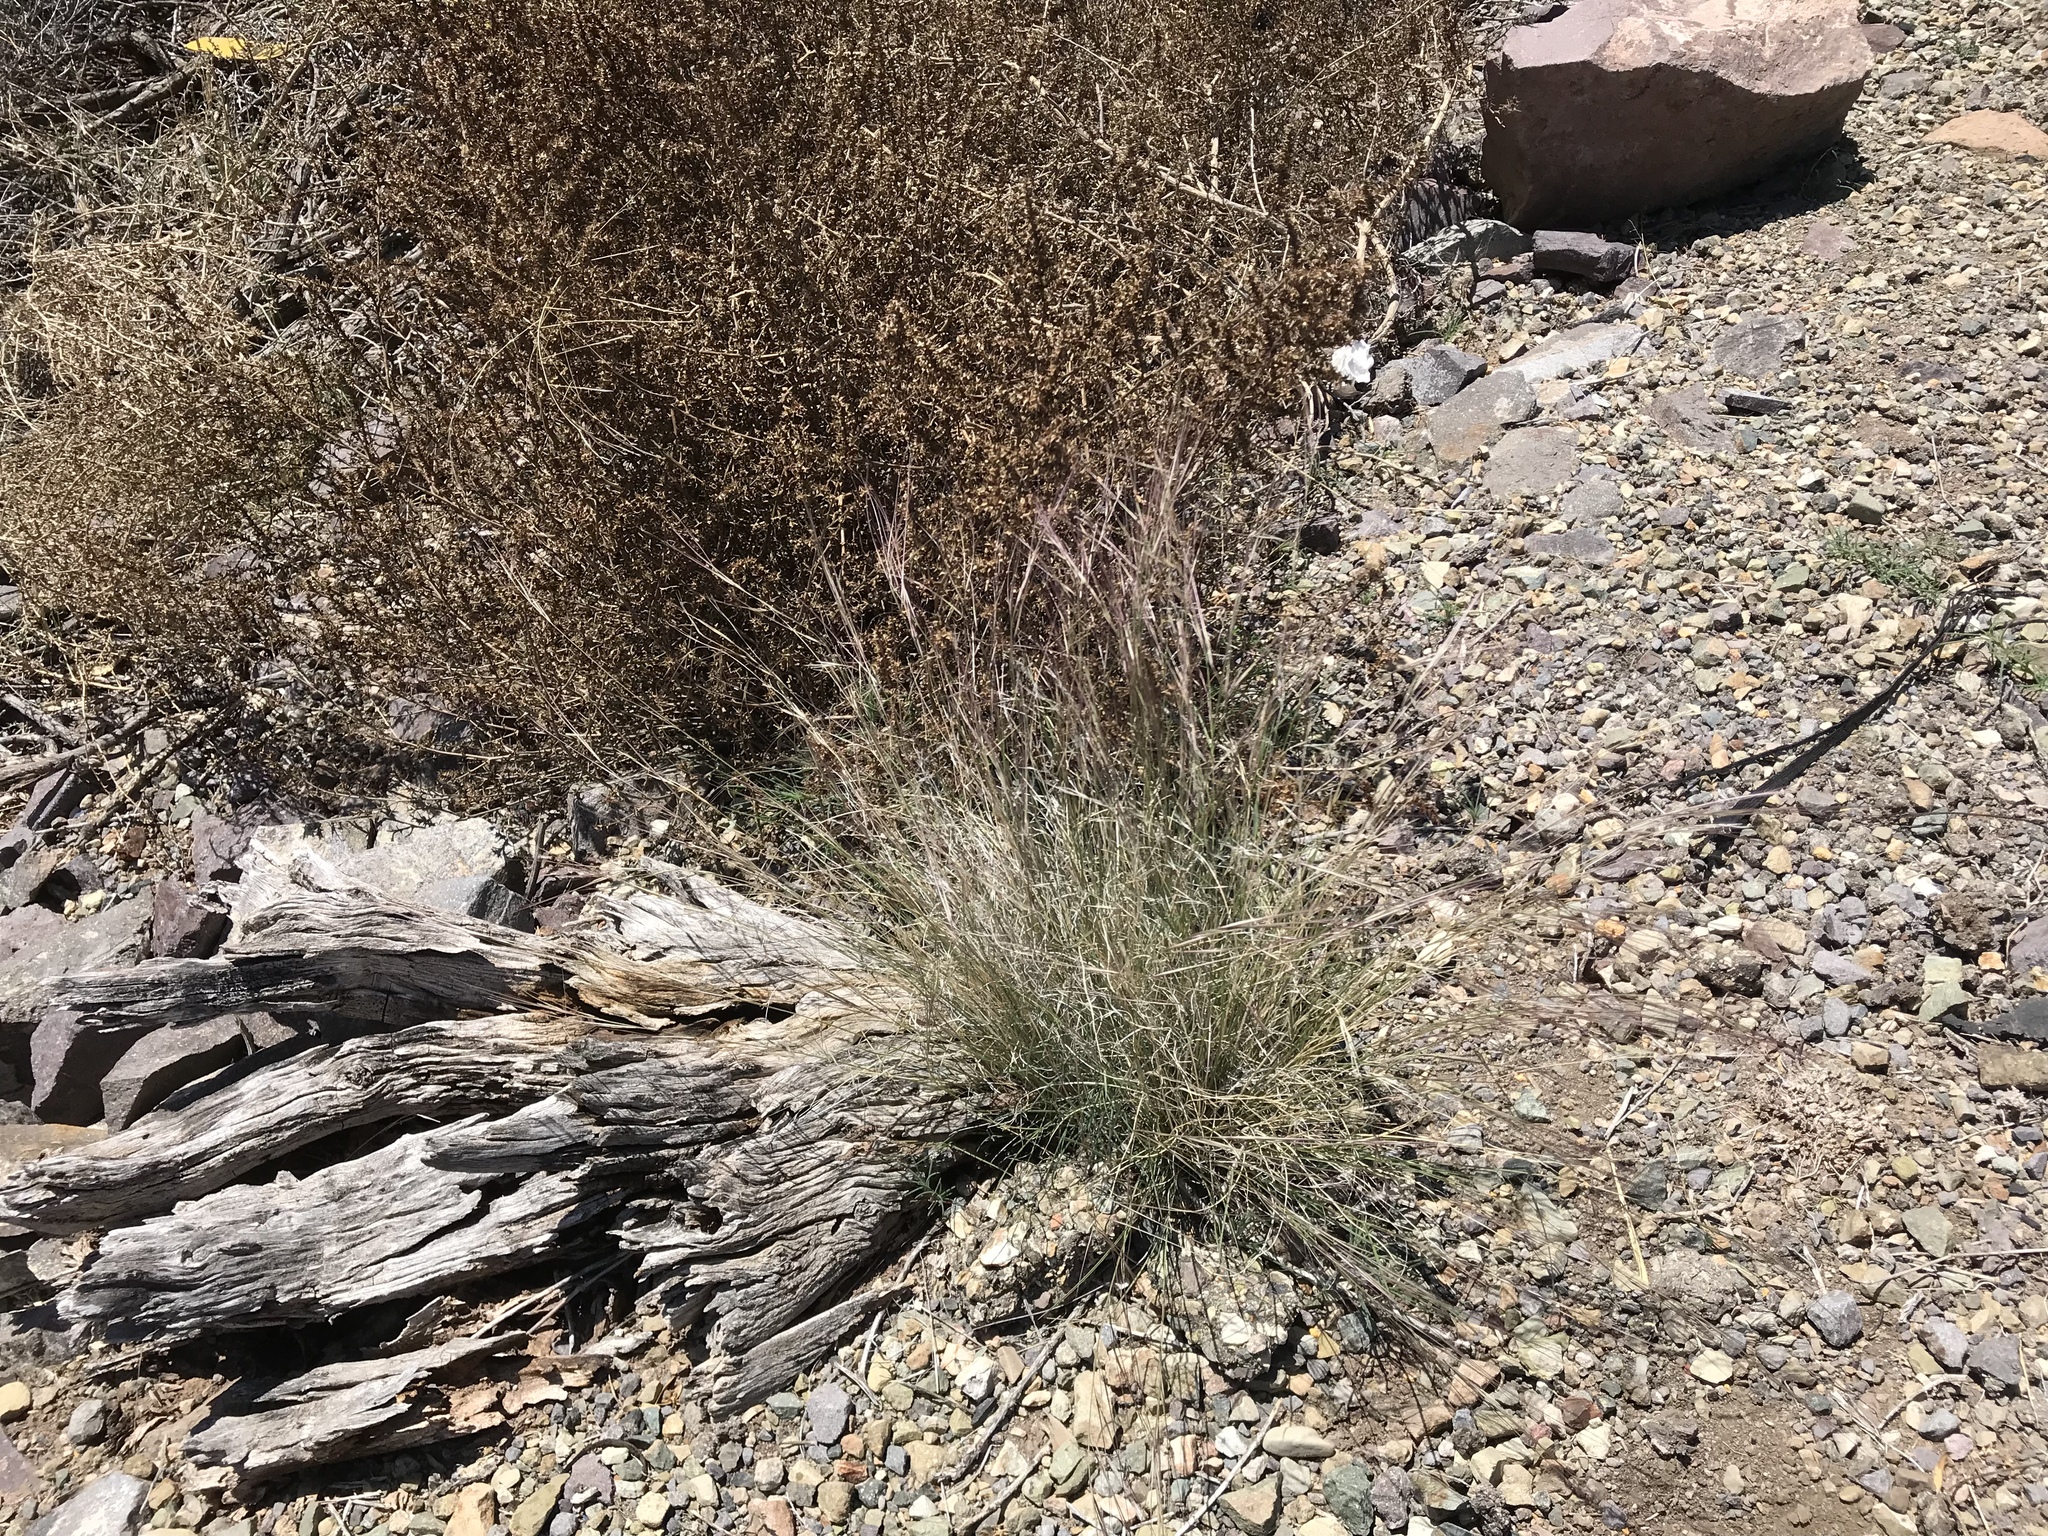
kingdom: Plantae
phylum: Tracheophyta
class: Liliopsida
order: Poales
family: Poaceae
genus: Aristida
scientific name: Aristida purpurea
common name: Purple threeawn
